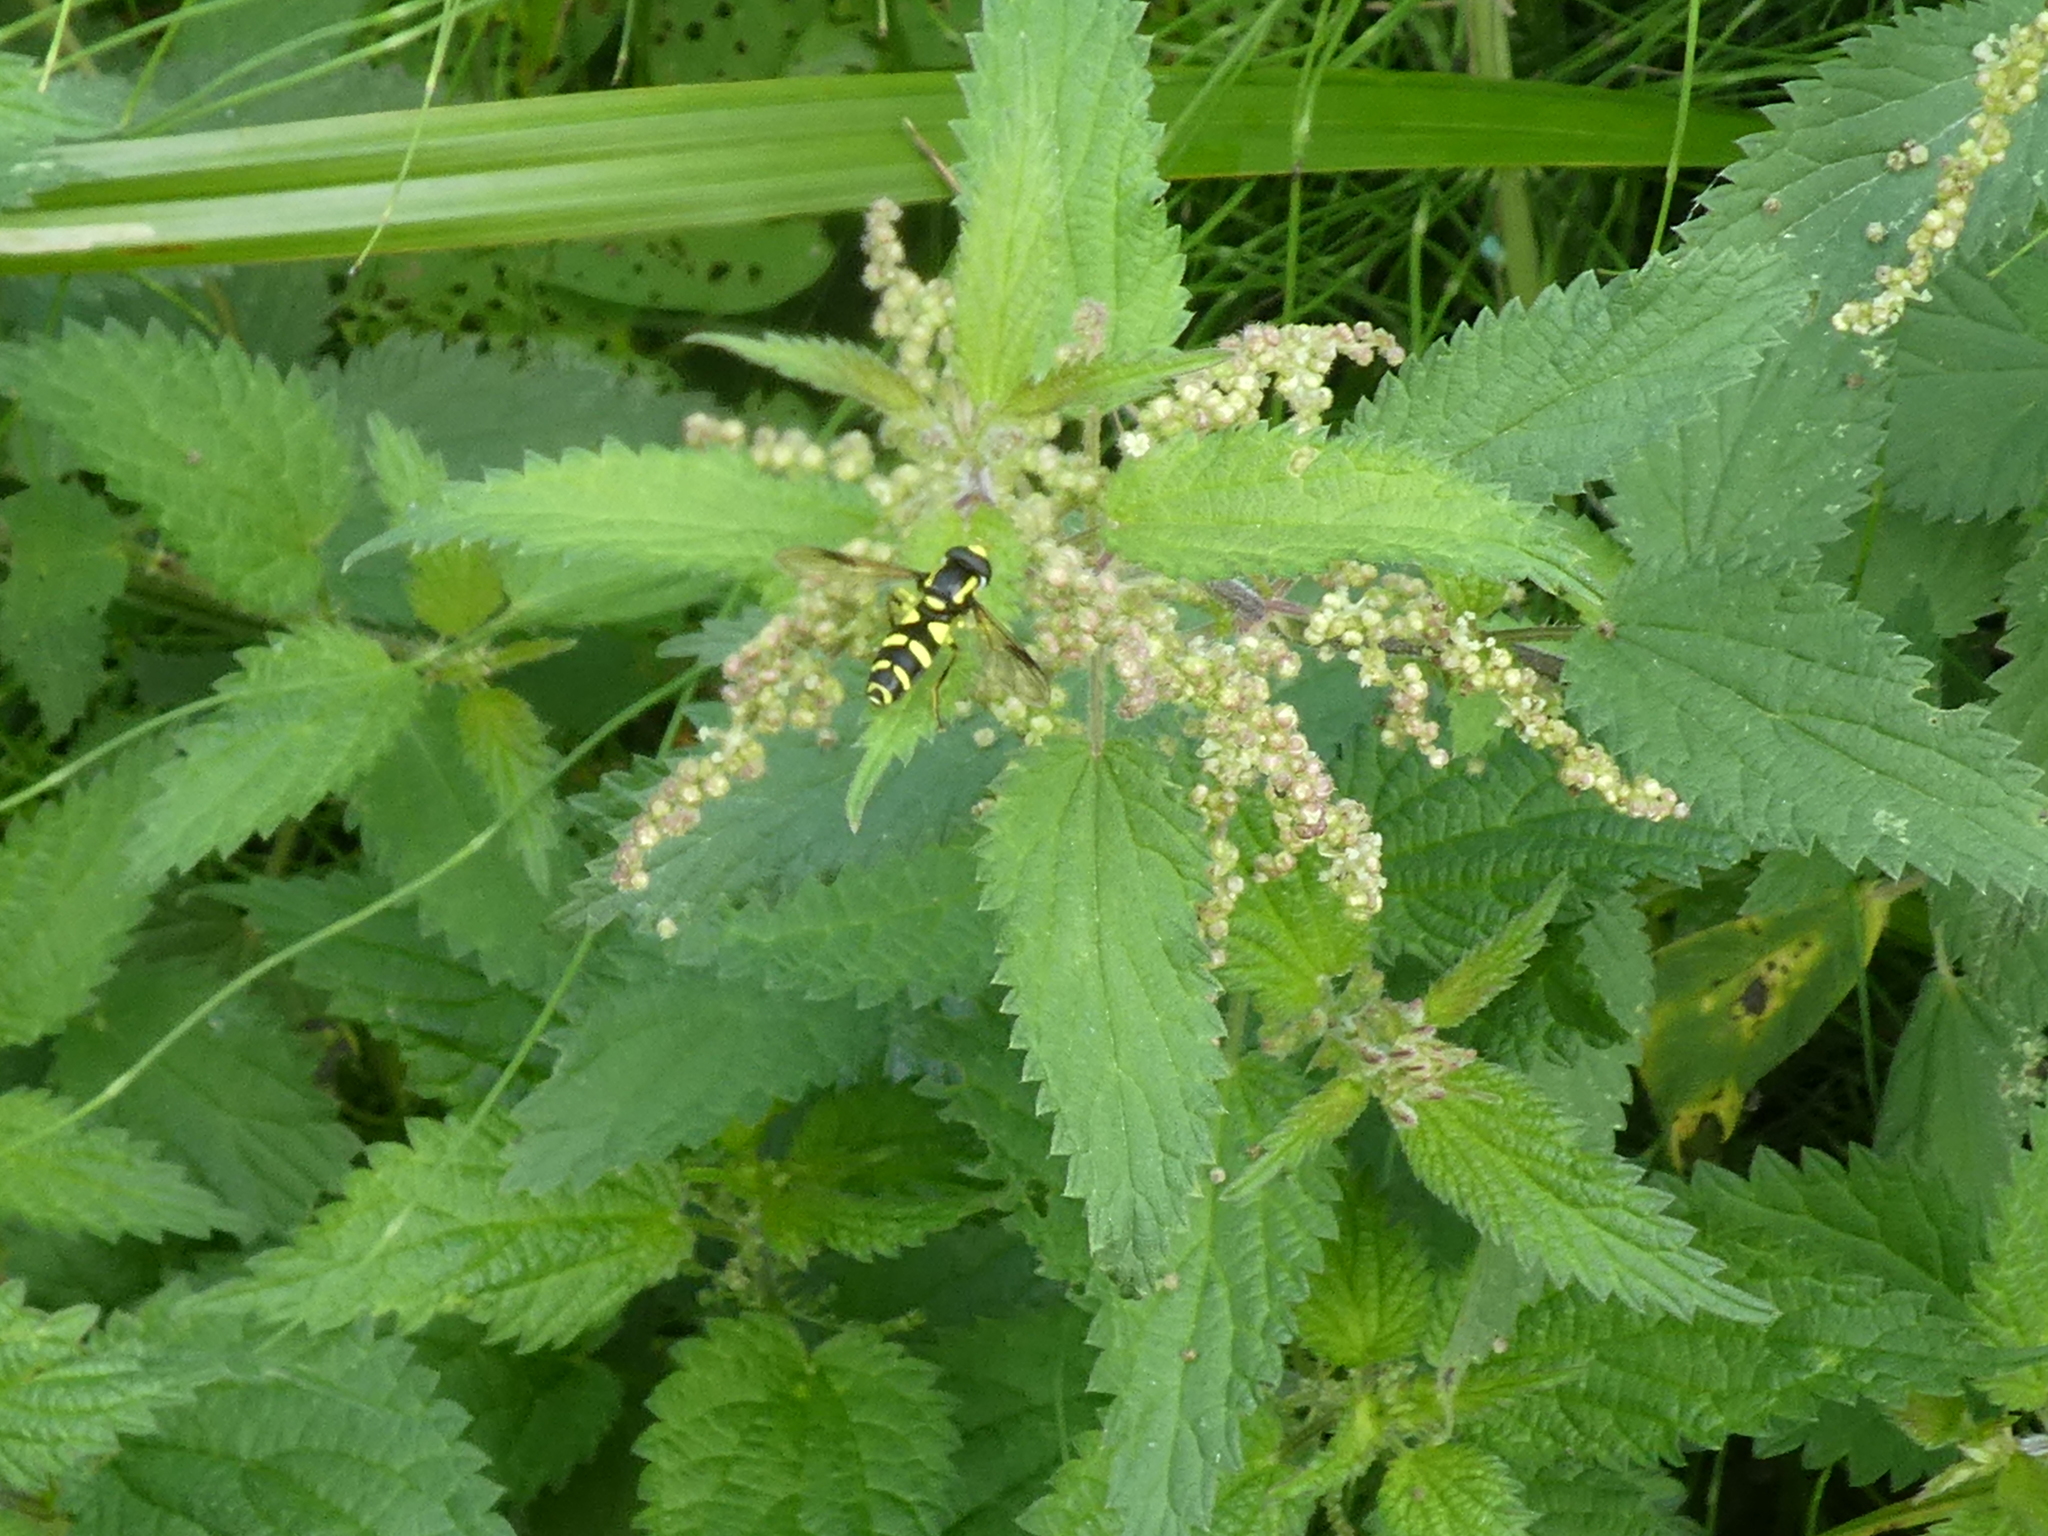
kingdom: Plantae
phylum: Tracheophyta
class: Magnoliopsida
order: Rosales
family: Urticaceae
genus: Urtica
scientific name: Urtica dioica
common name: Common nettle
